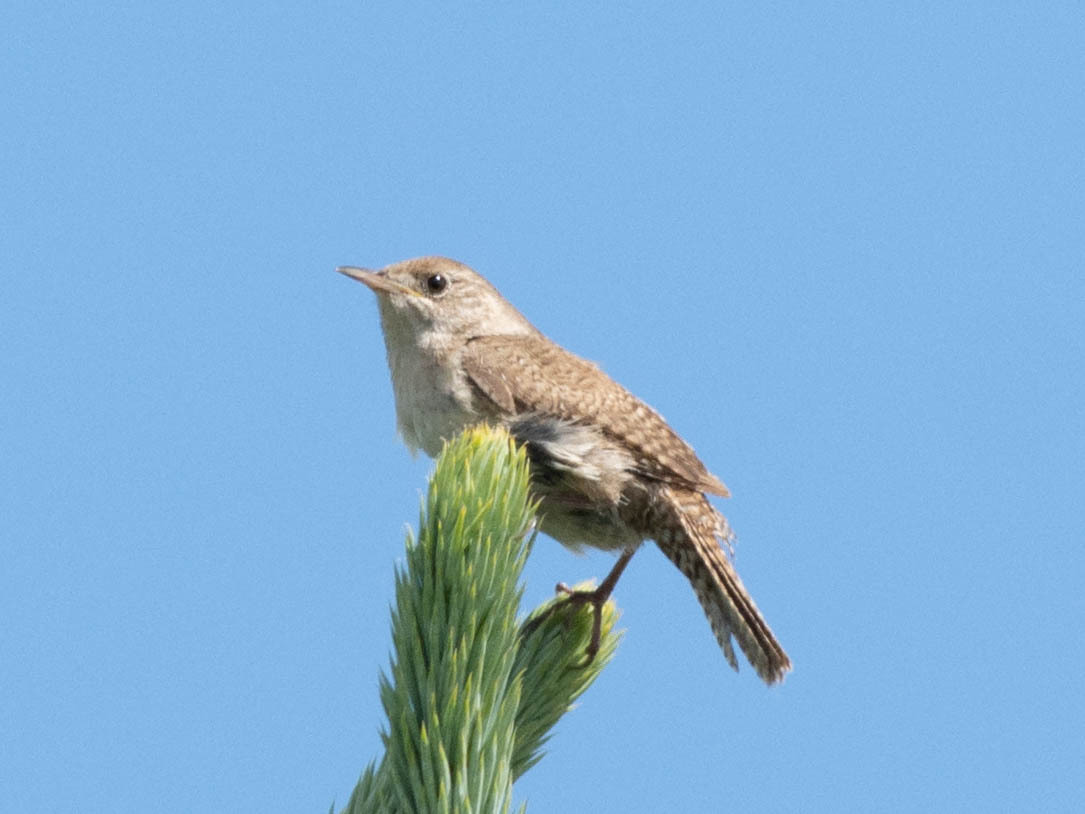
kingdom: Animalia
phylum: Chordata
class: Aves
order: Passeriformes
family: Troglodytidae
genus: Troglodytes
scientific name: Troglodytes aedon
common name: House wren
